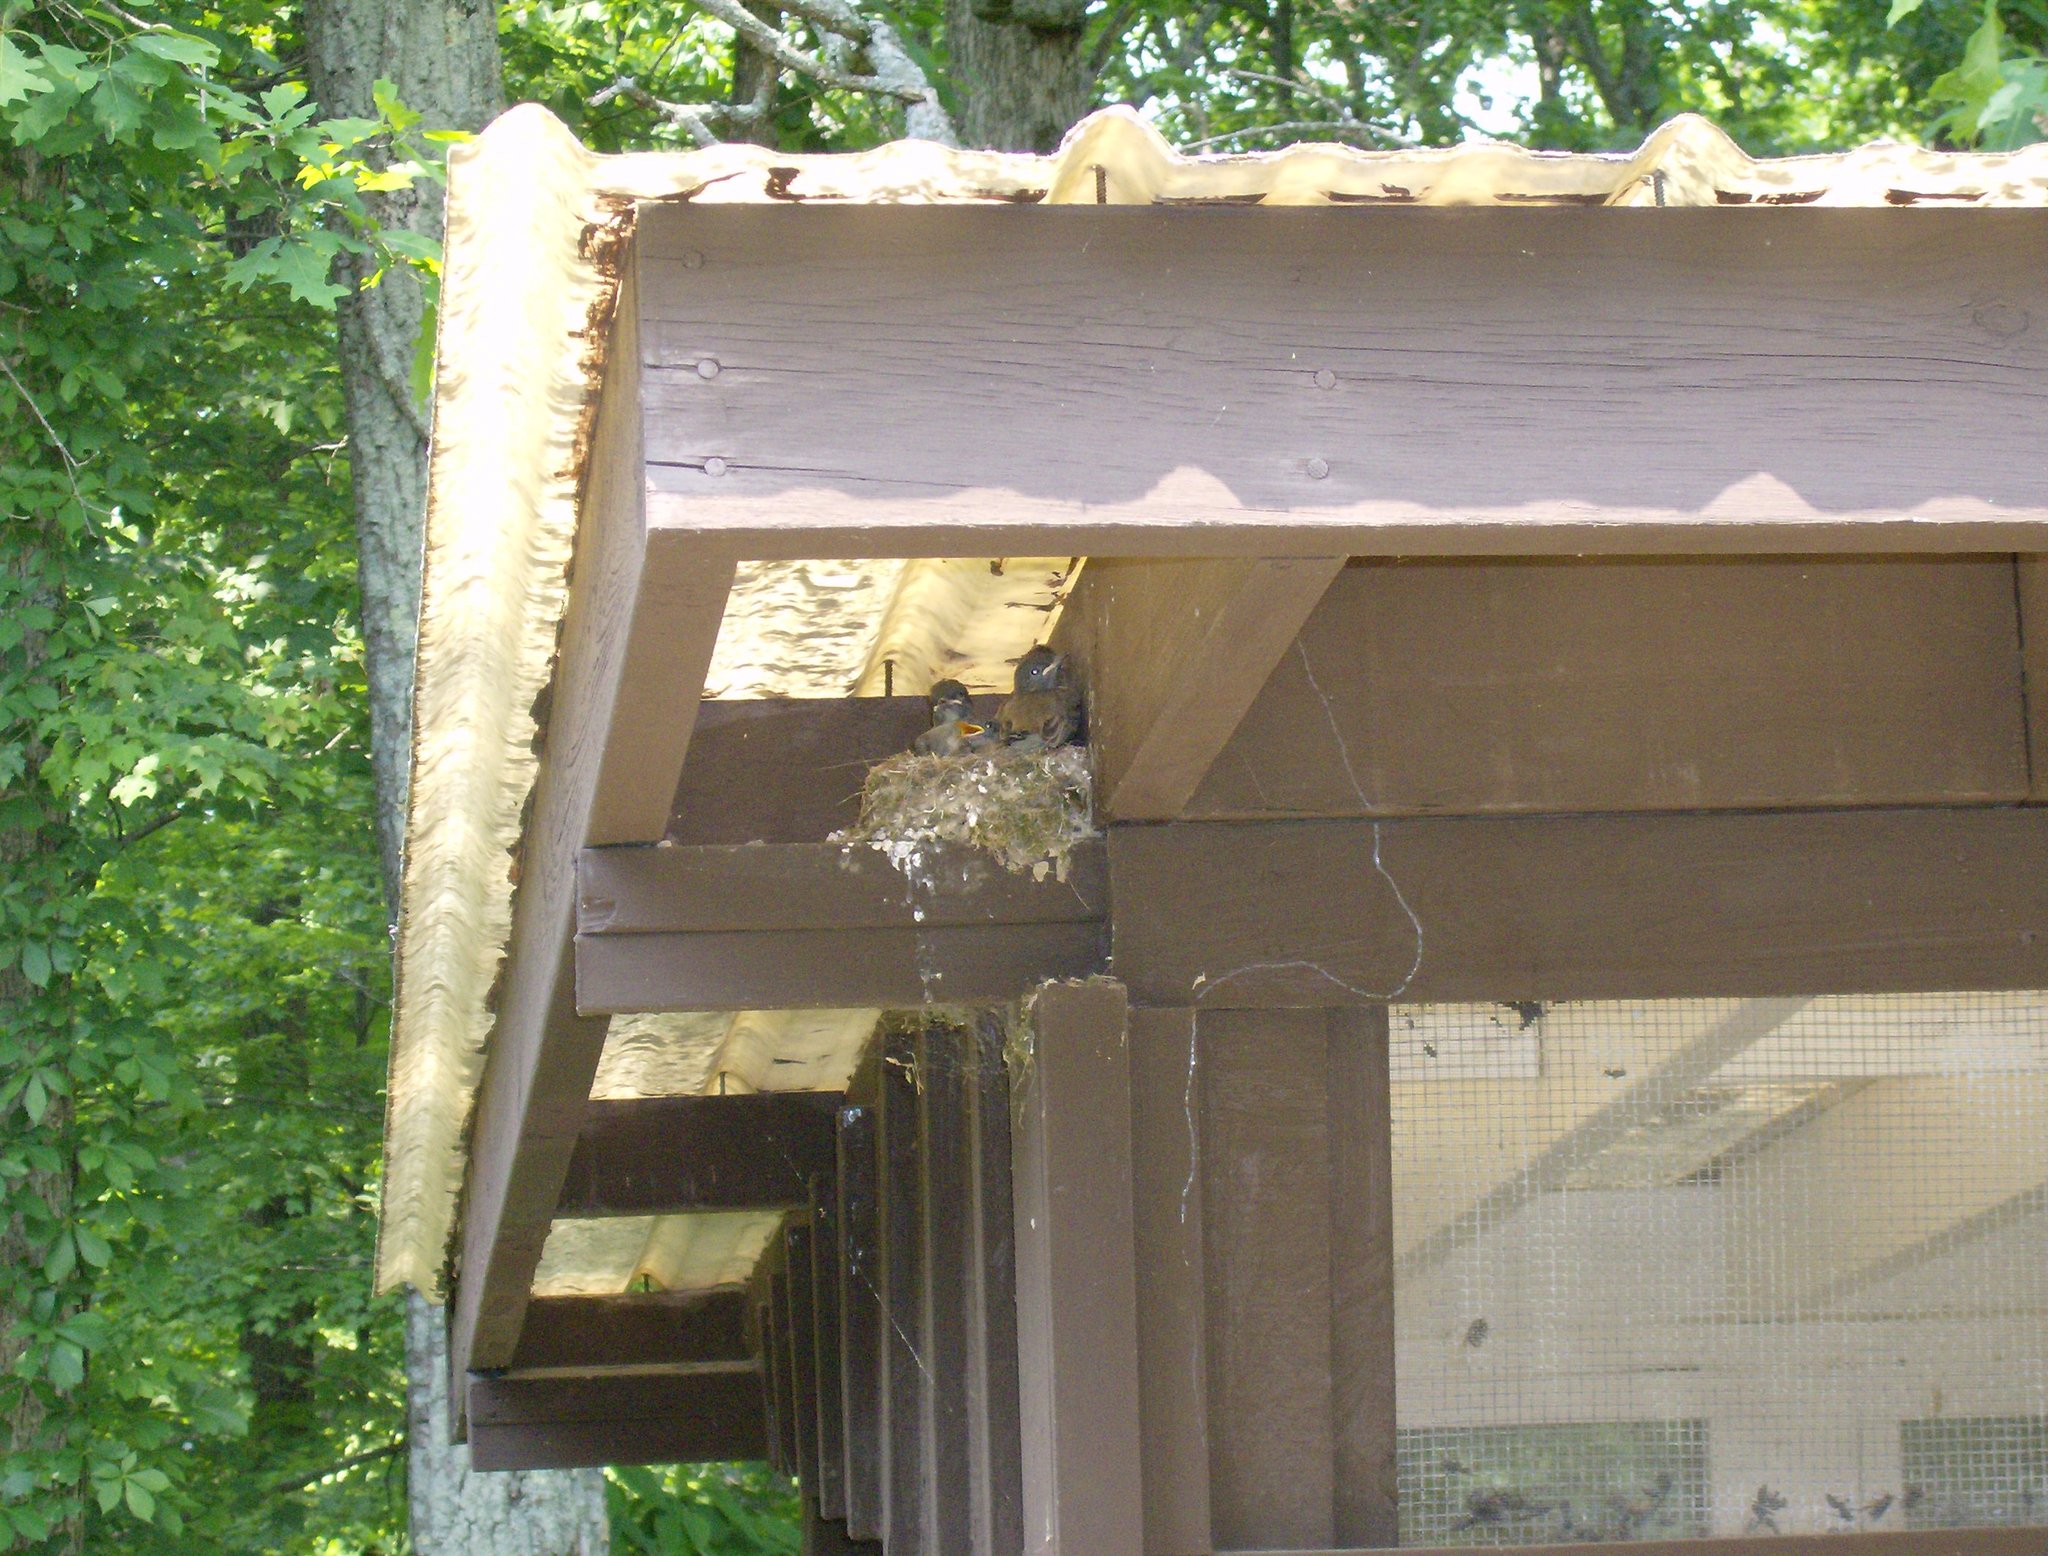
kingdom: Animalia
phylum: Chordata
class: Aves
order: Passeriformes
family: Tyrannidae
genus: Sayornis
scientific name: Sayornis phoebe
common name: Eastern phoebe
